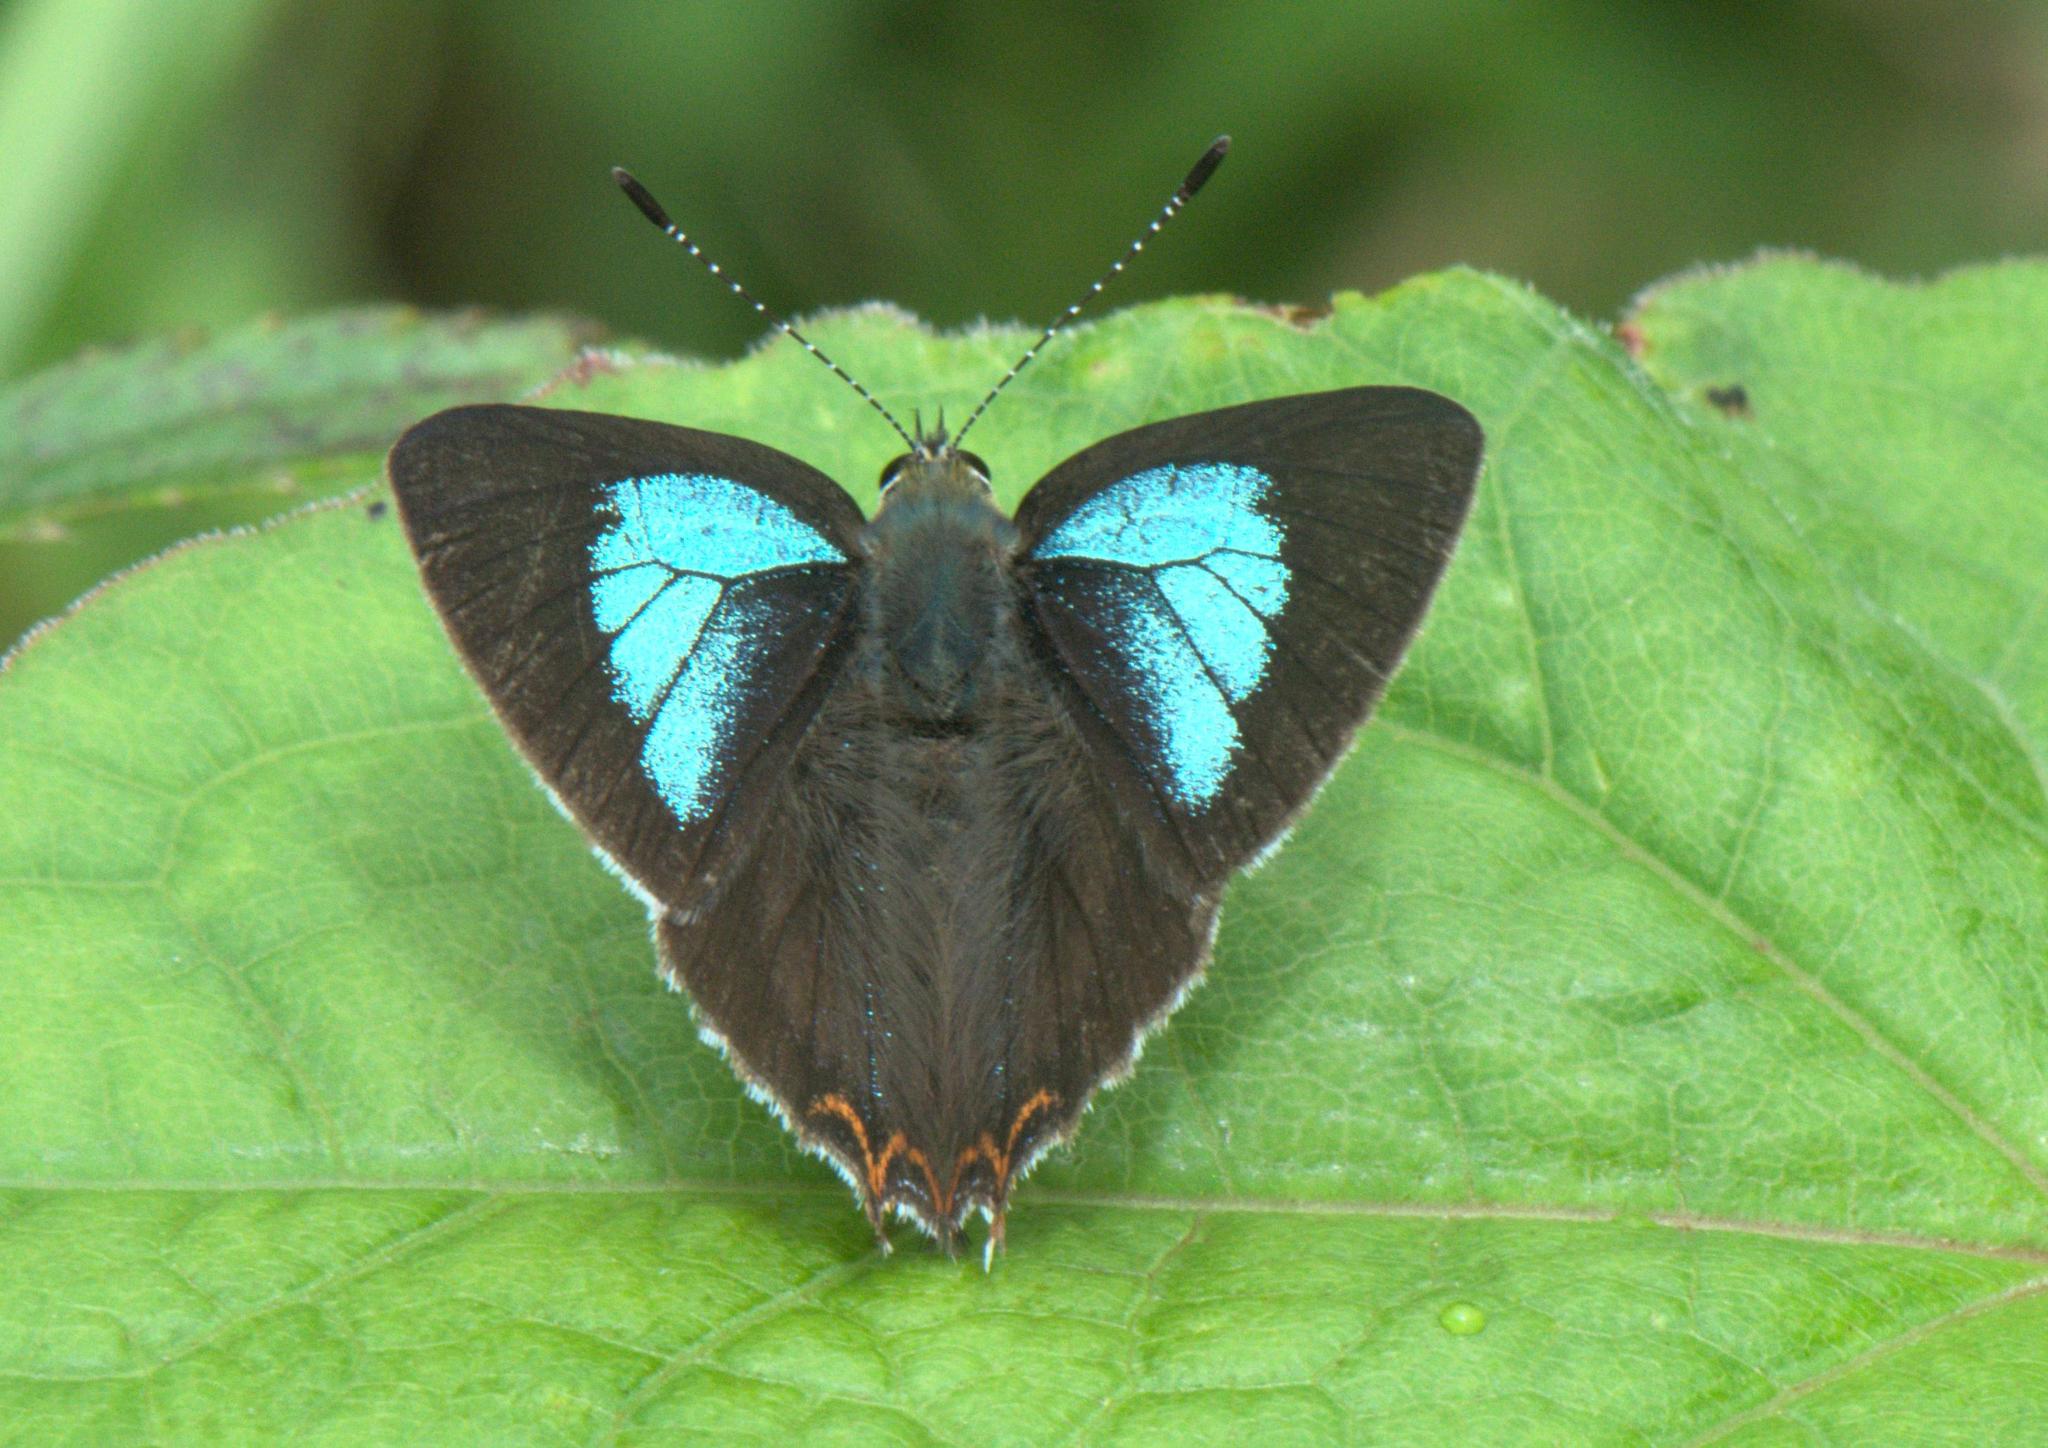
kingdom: Animalia
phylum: Arthropoda
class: Insecta
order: Lepidoptera
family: Lycaenidae
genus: Heliophorus
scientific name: Heliophorus
